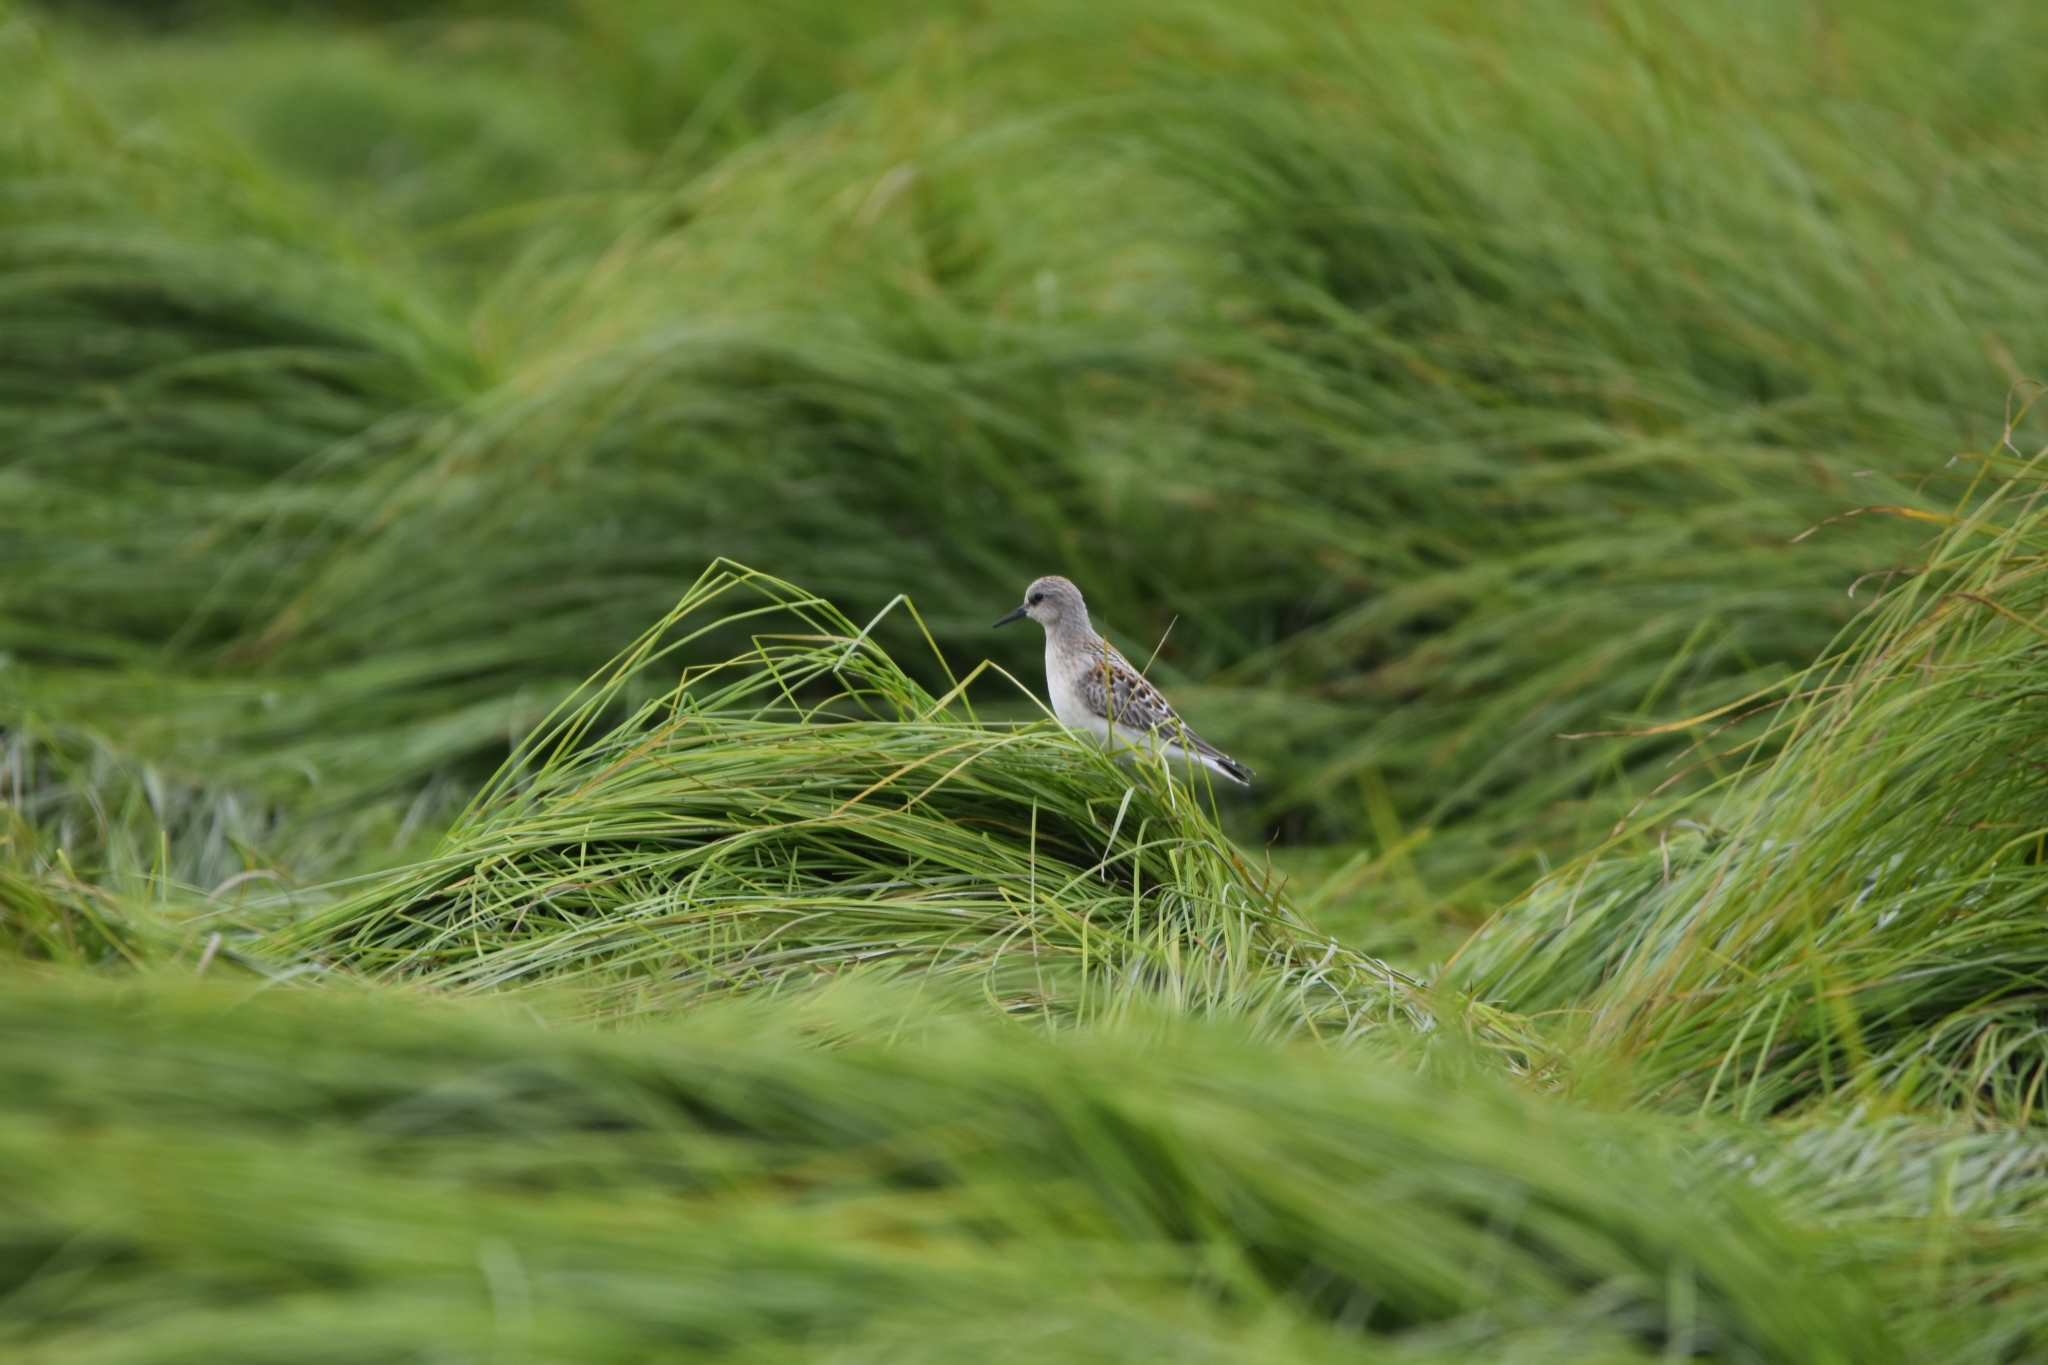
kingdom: Animalia
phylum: Chordata
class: Aves
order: Charadriiformes
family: Scolopacidae
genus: Calidris
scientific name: Calidris ruficollis
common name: Red-necked stint
